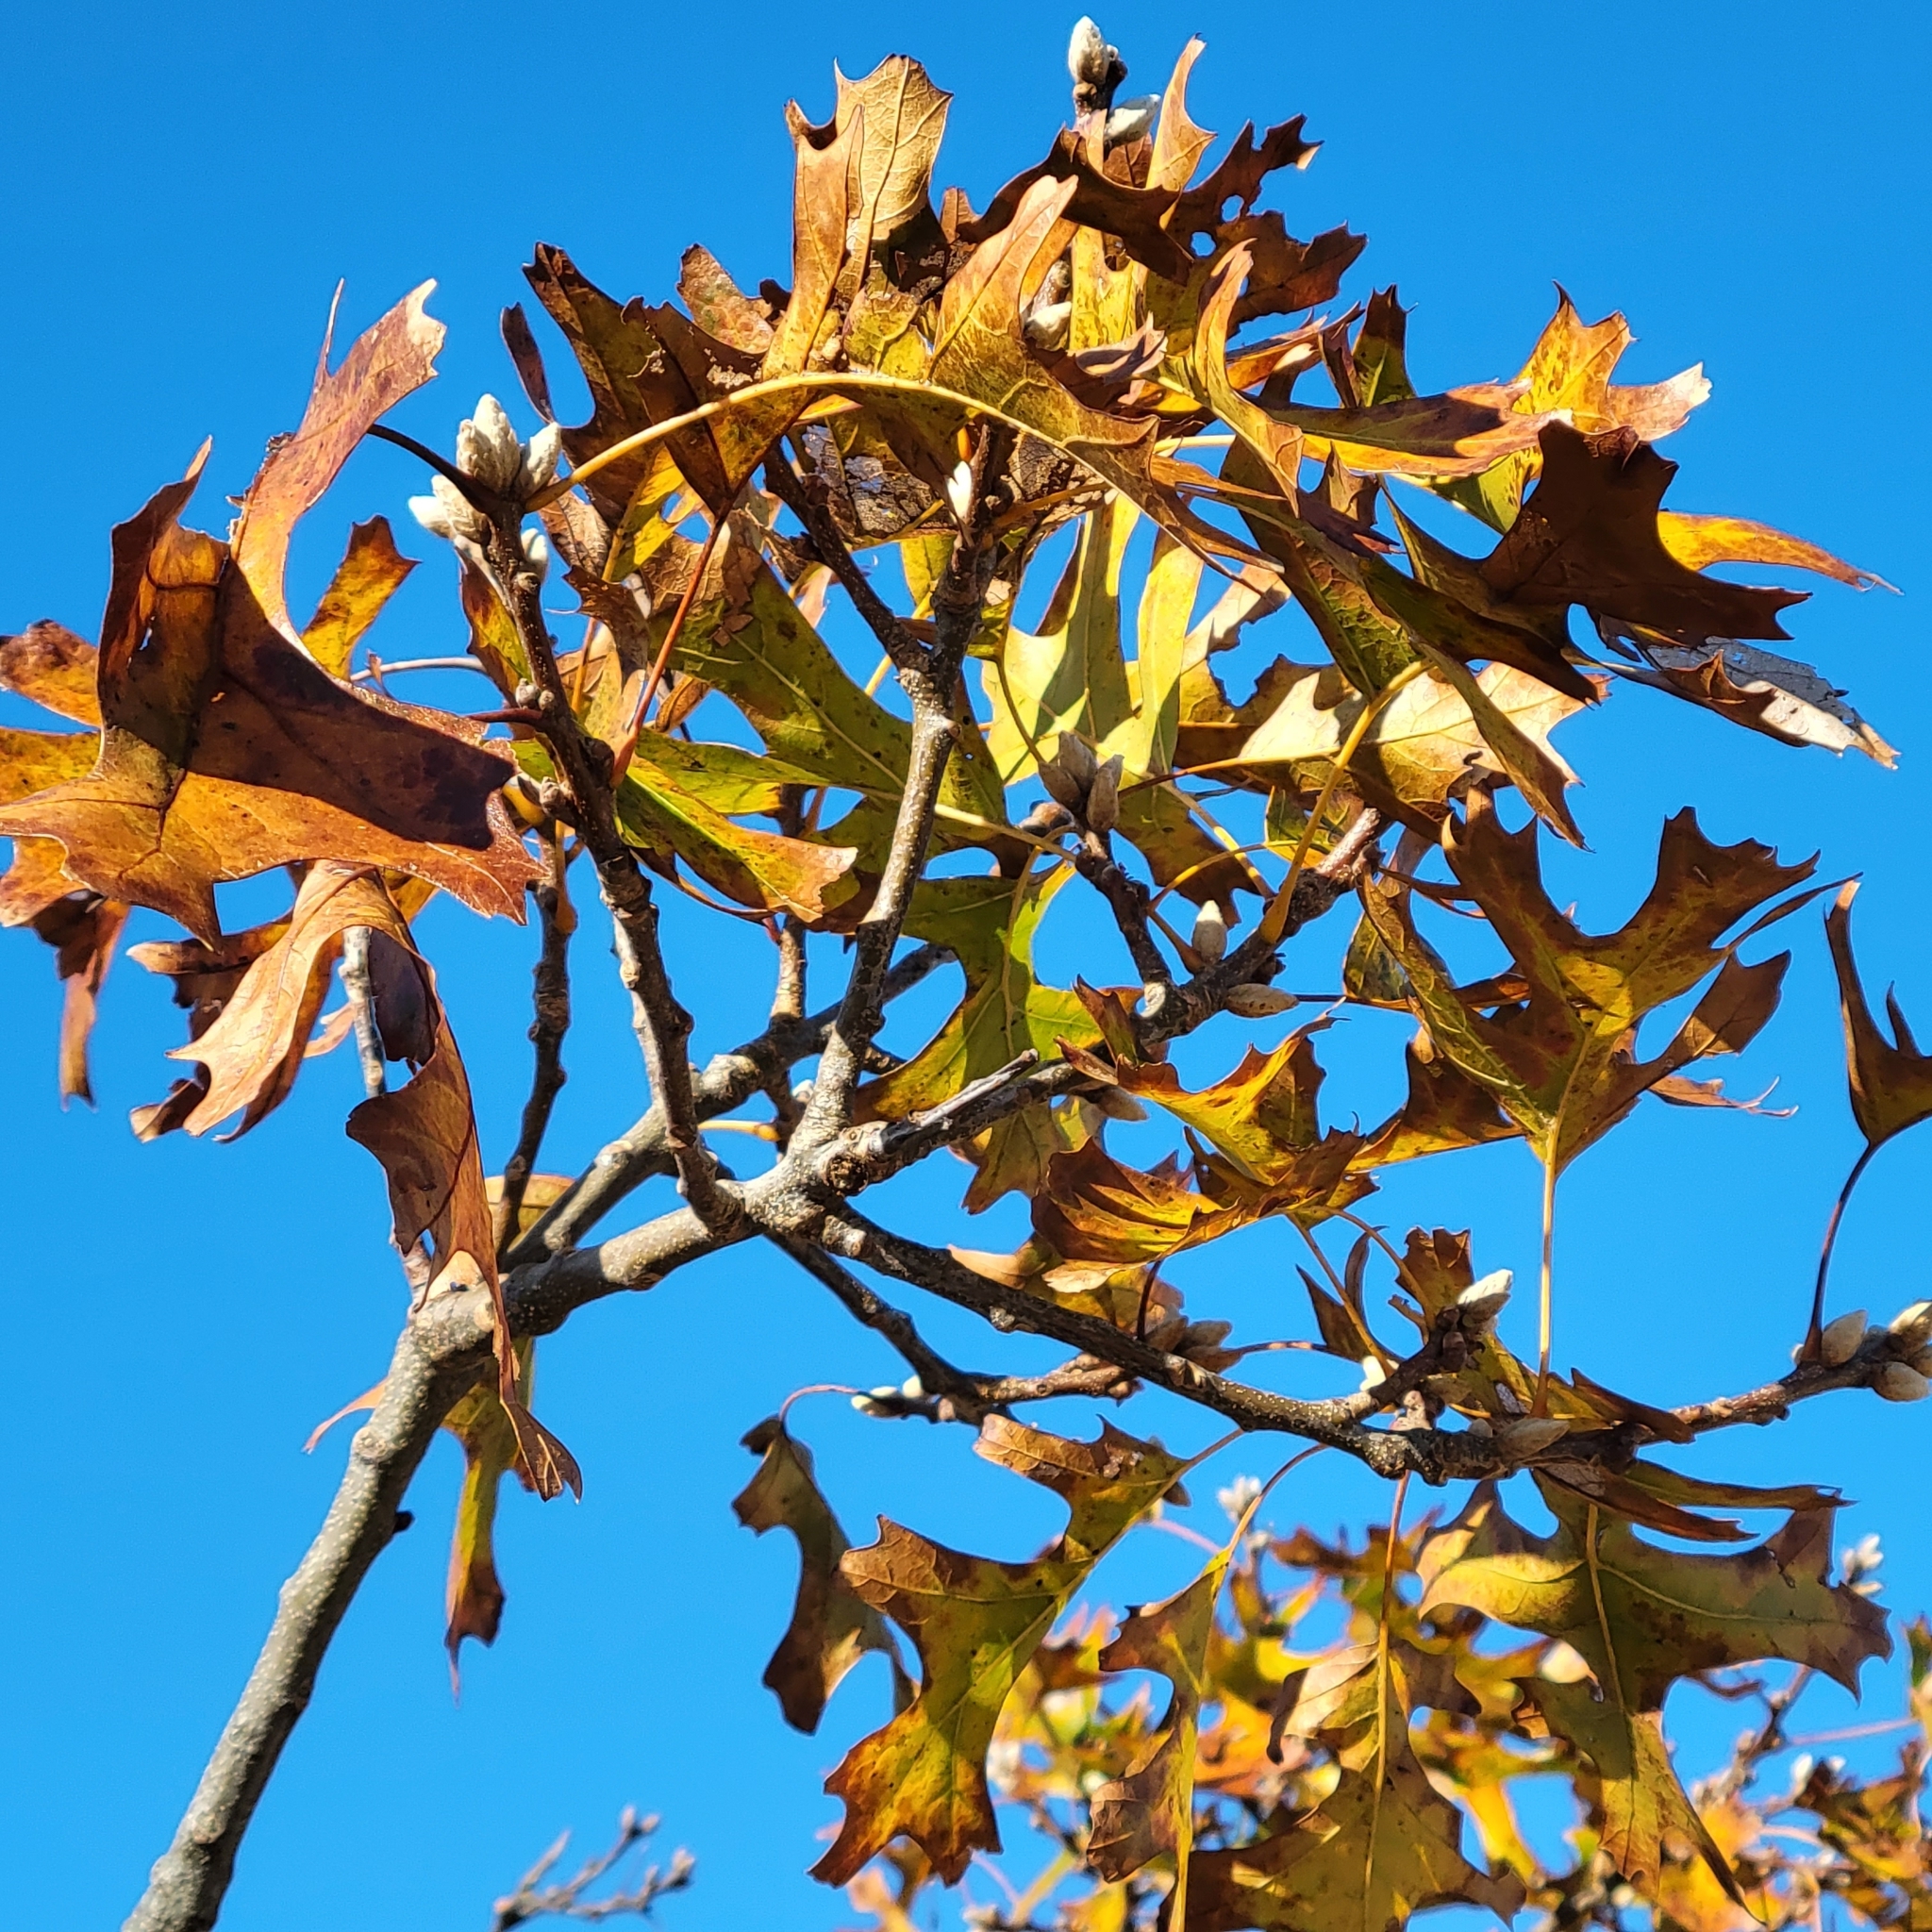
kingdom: Plantae
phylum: Tracheophyta
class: Magnoliopsida
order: Fagales
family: Fagaceae
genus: Quercus
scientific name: Quercus velutina
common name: Black oak
